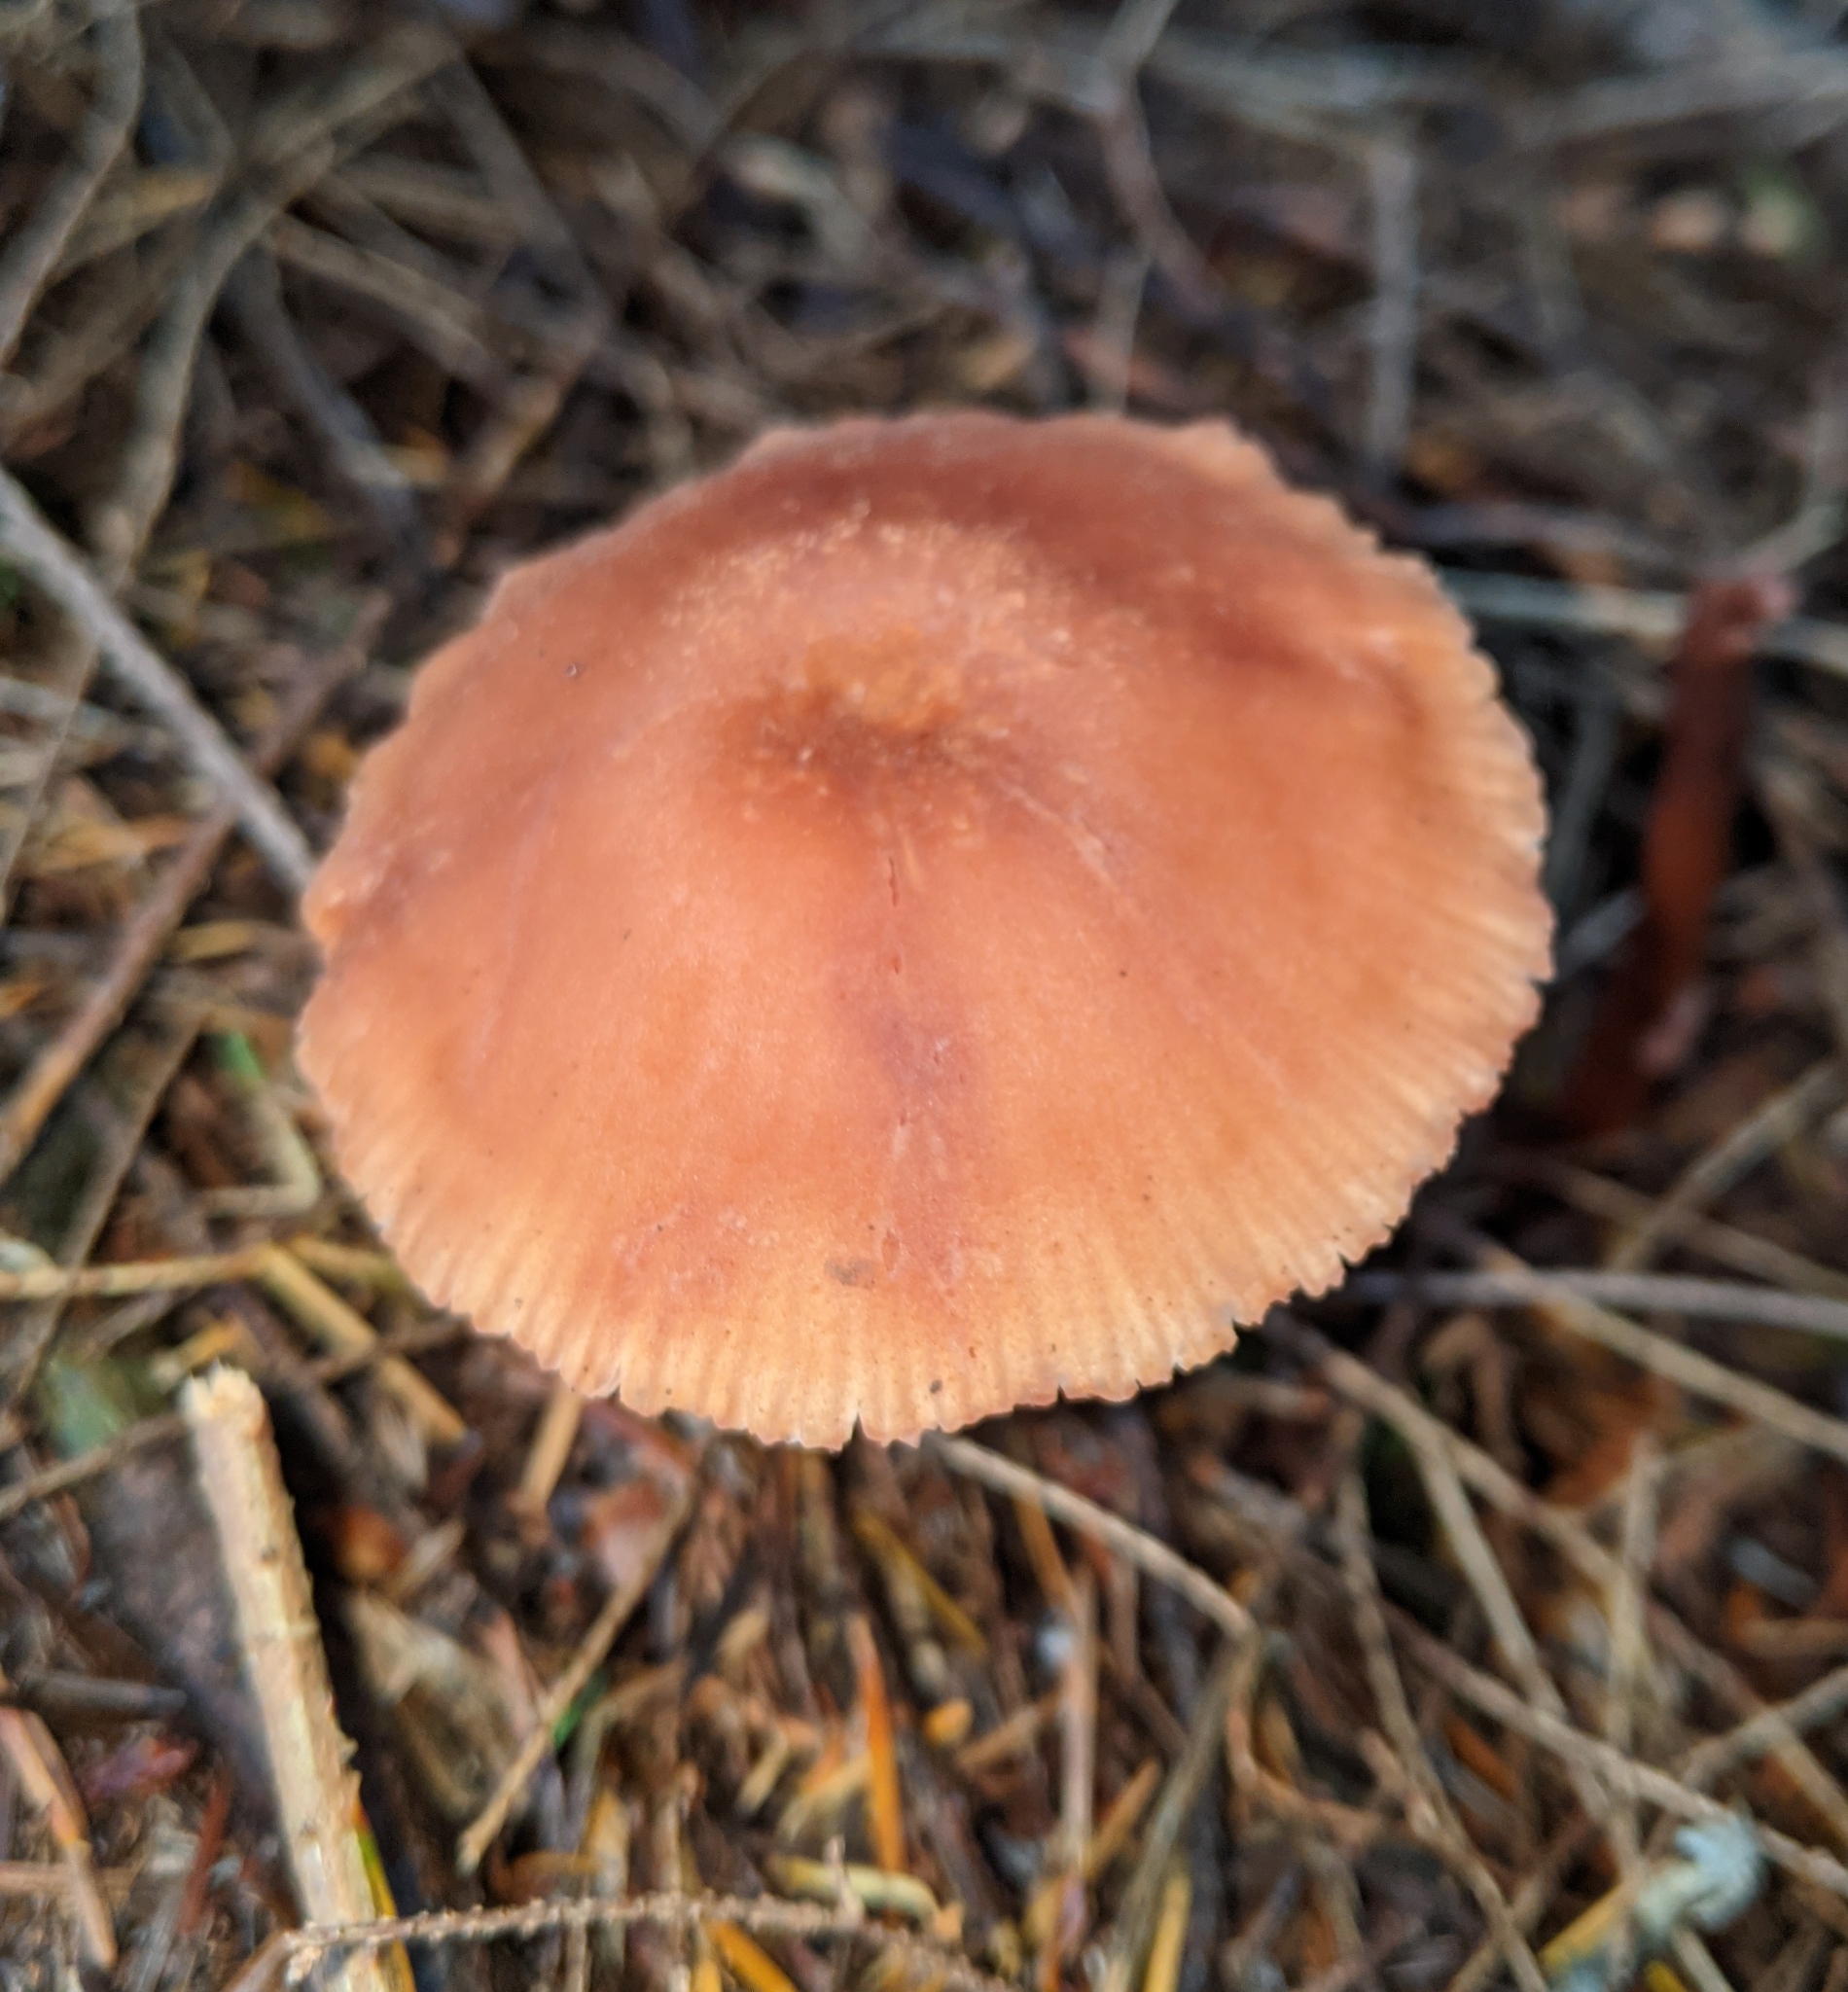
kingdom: Fungi
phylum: Basidiomycota
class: Agaricomycetes
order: Agaricales
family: Hydnangiaceae
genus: Laccaria
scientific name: Laccaria laccata
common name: Deceiver
